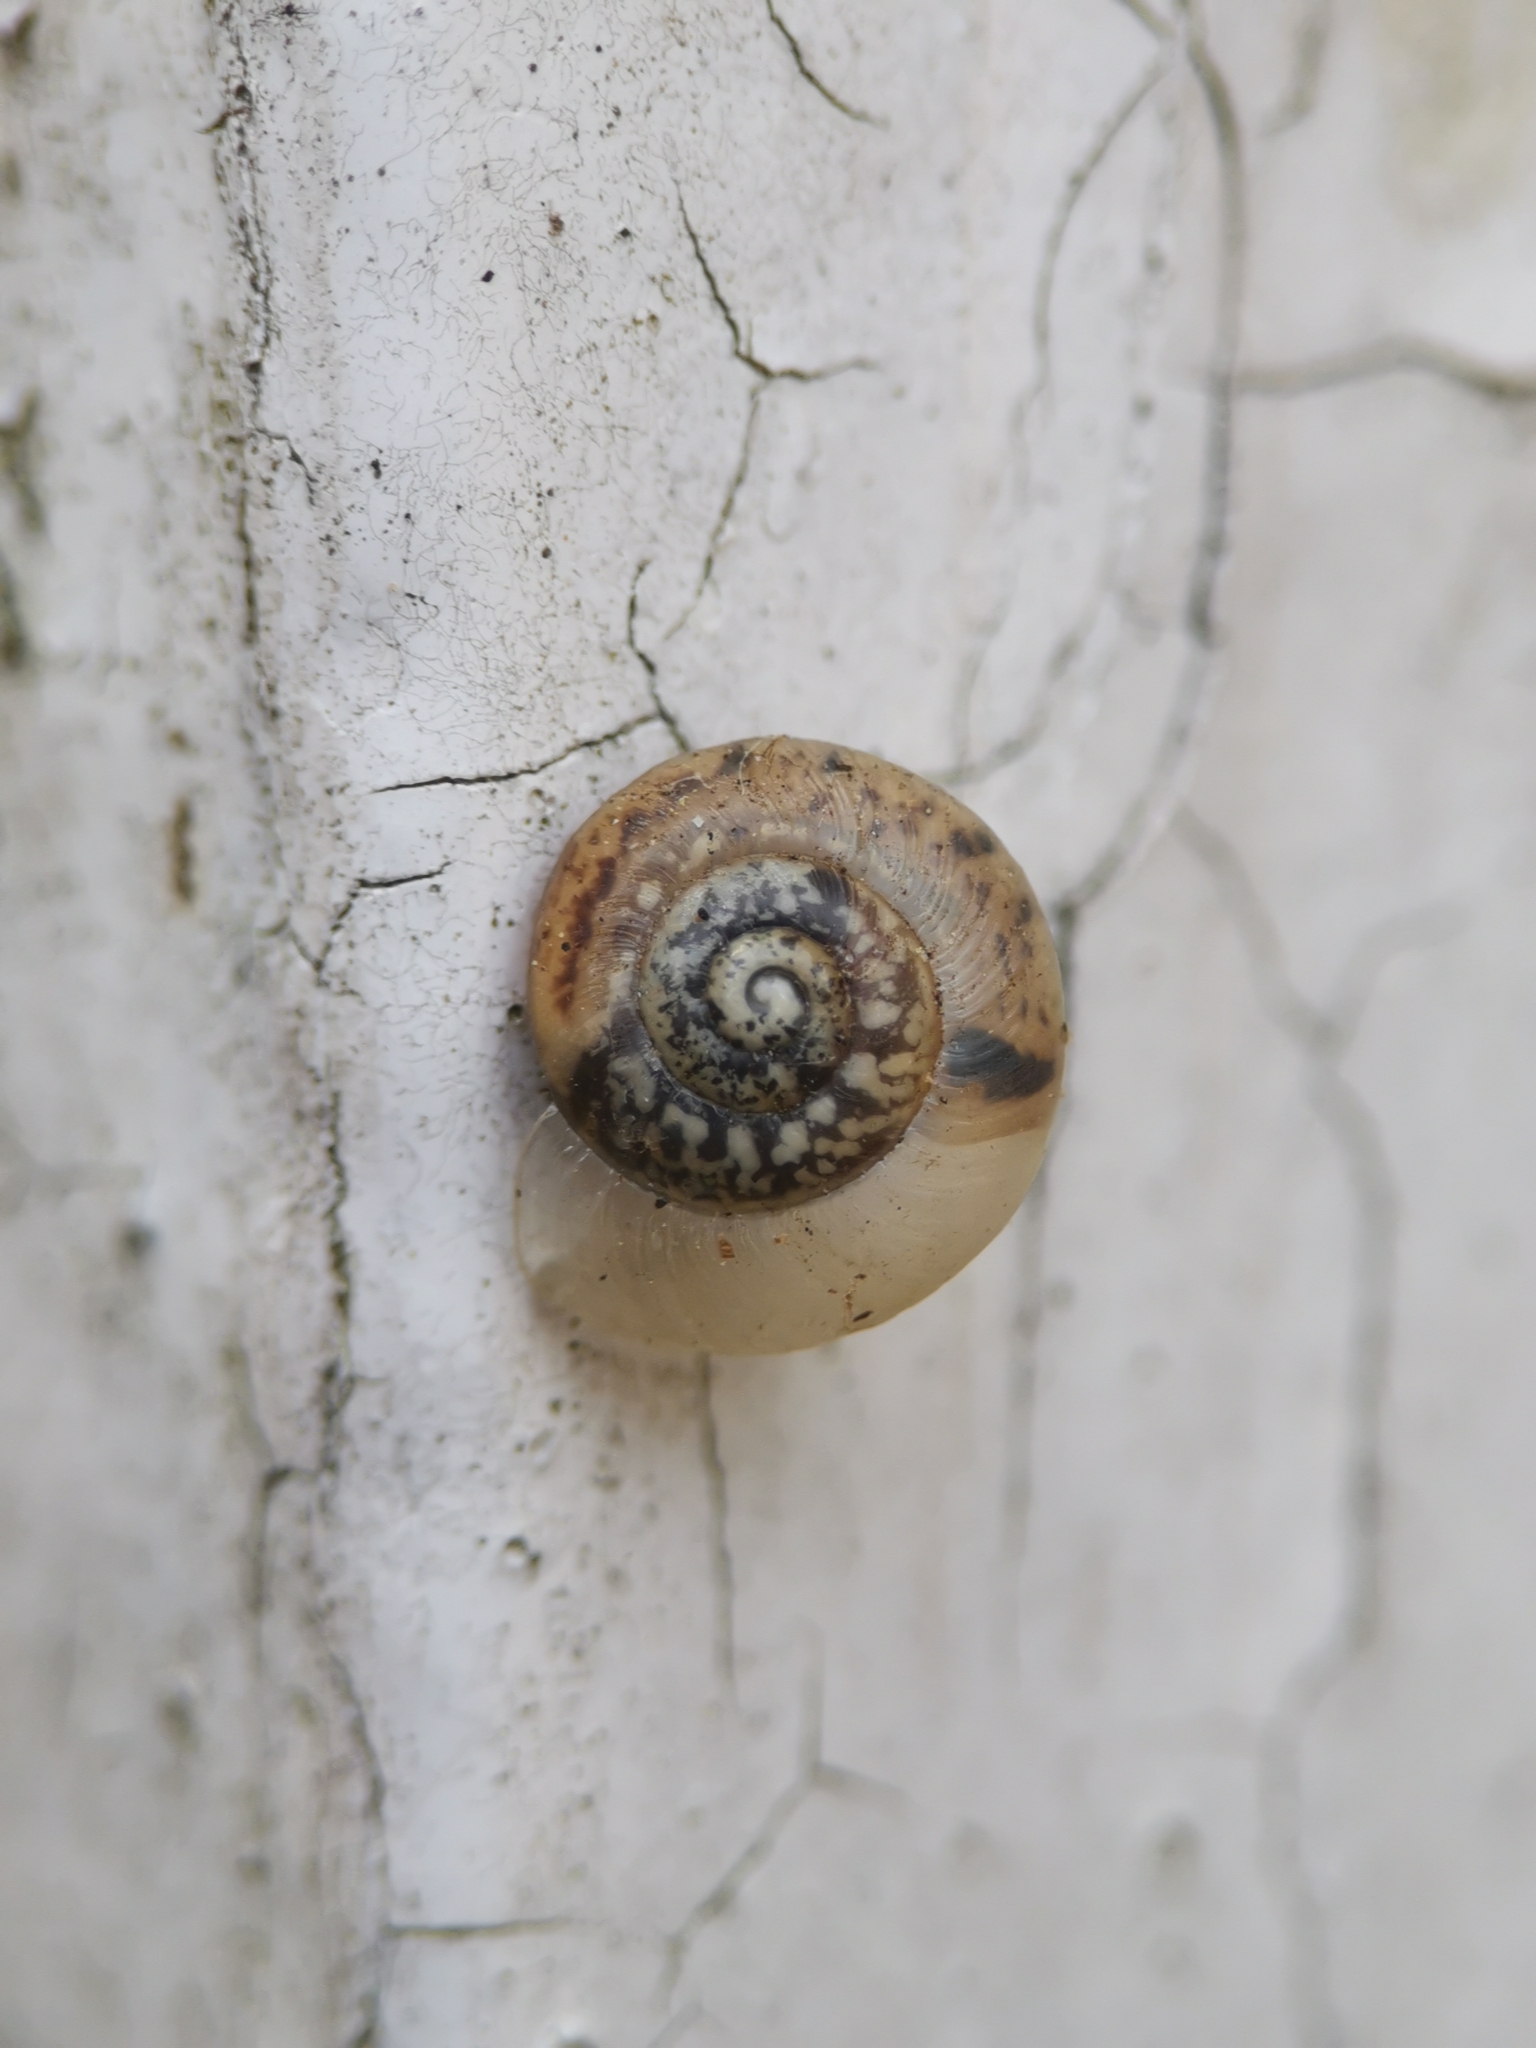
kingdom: Animalia
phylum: Mollusca
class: Gastropoda
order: Stylommatophora
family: Hygromiidae
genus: Hygromia
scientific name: Hygromia cinctella
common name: Girdled snail
